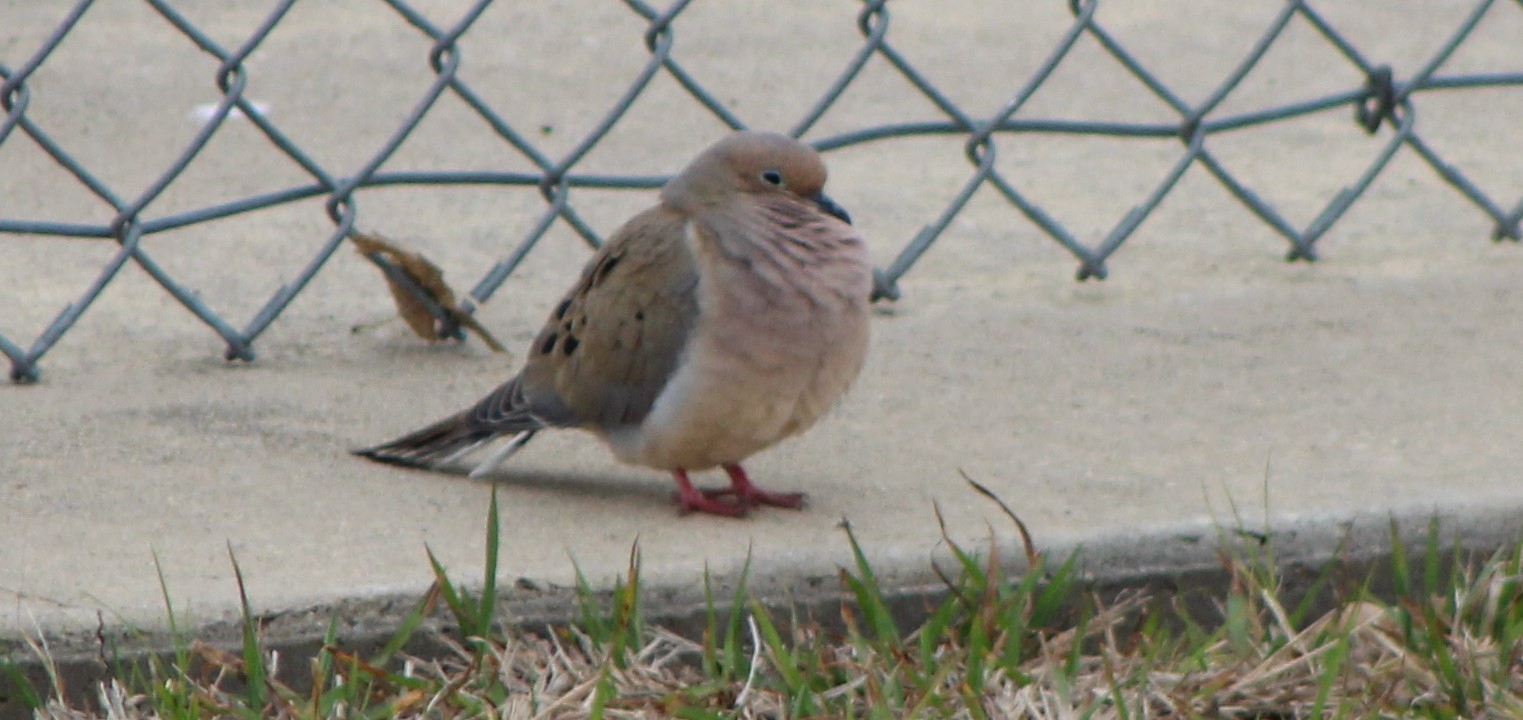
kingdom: Animalia
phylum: Chordata
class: Aves
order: Columbiformes
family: Columbidae
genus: Zenaida
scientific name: Zenaida macroura
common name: Mourning dove
